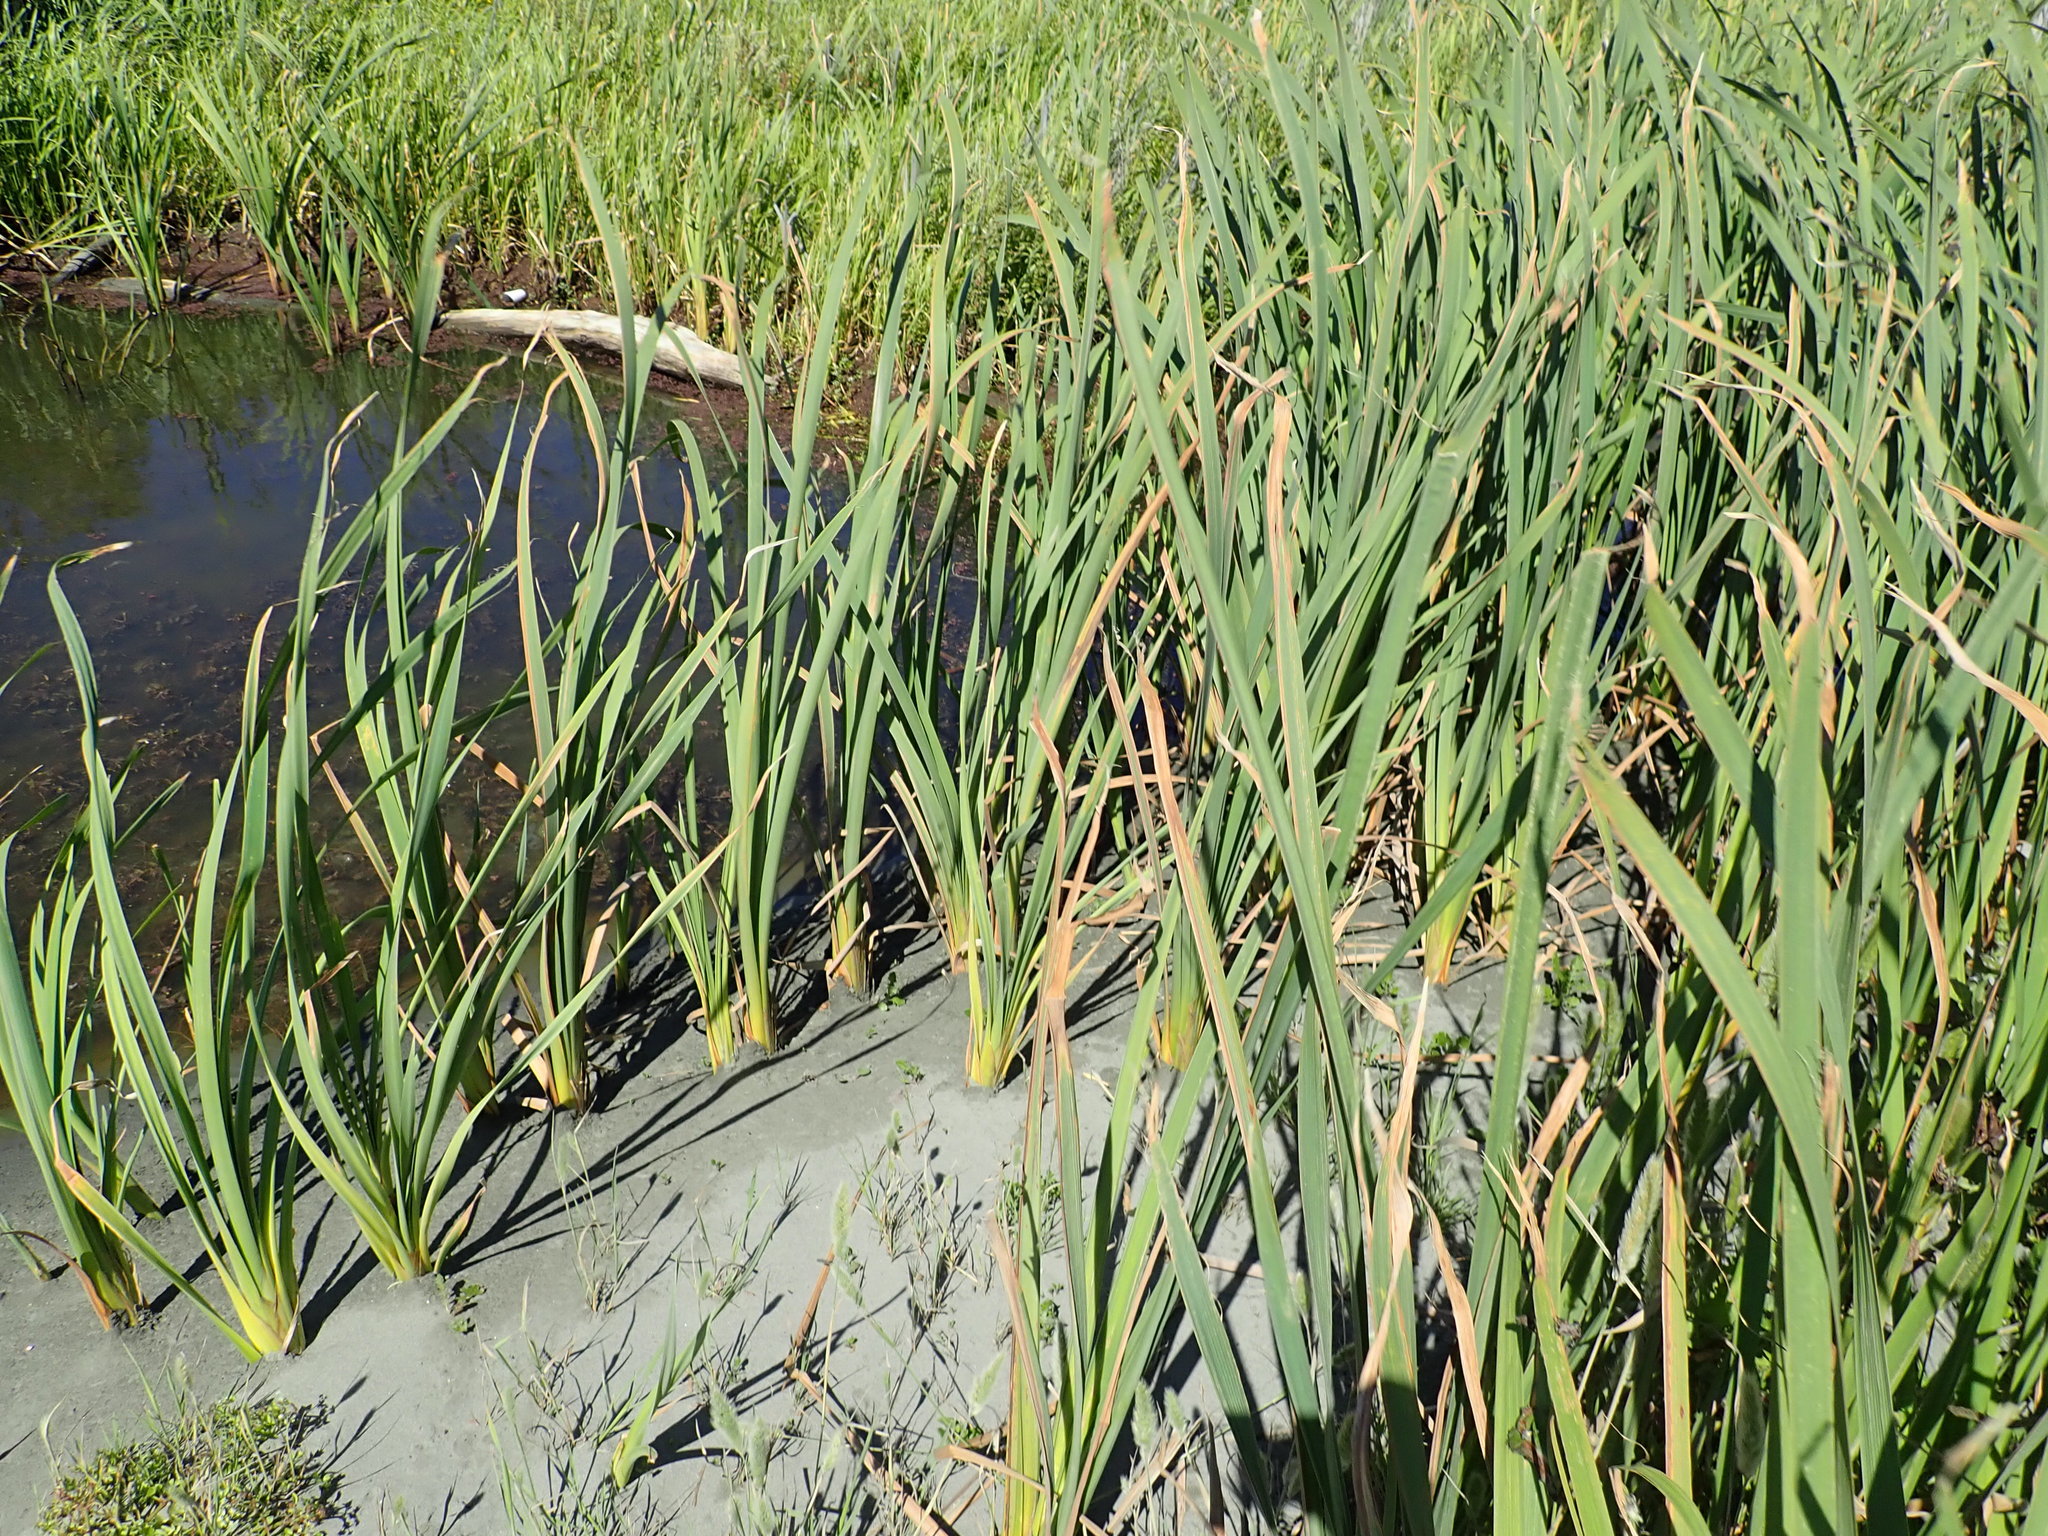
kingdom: Plantae
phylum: Tracheophyta
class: Liliopsida
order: Poales
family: Typhaceae
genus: Typha
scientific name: Typha orientalis
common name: Bullrush
